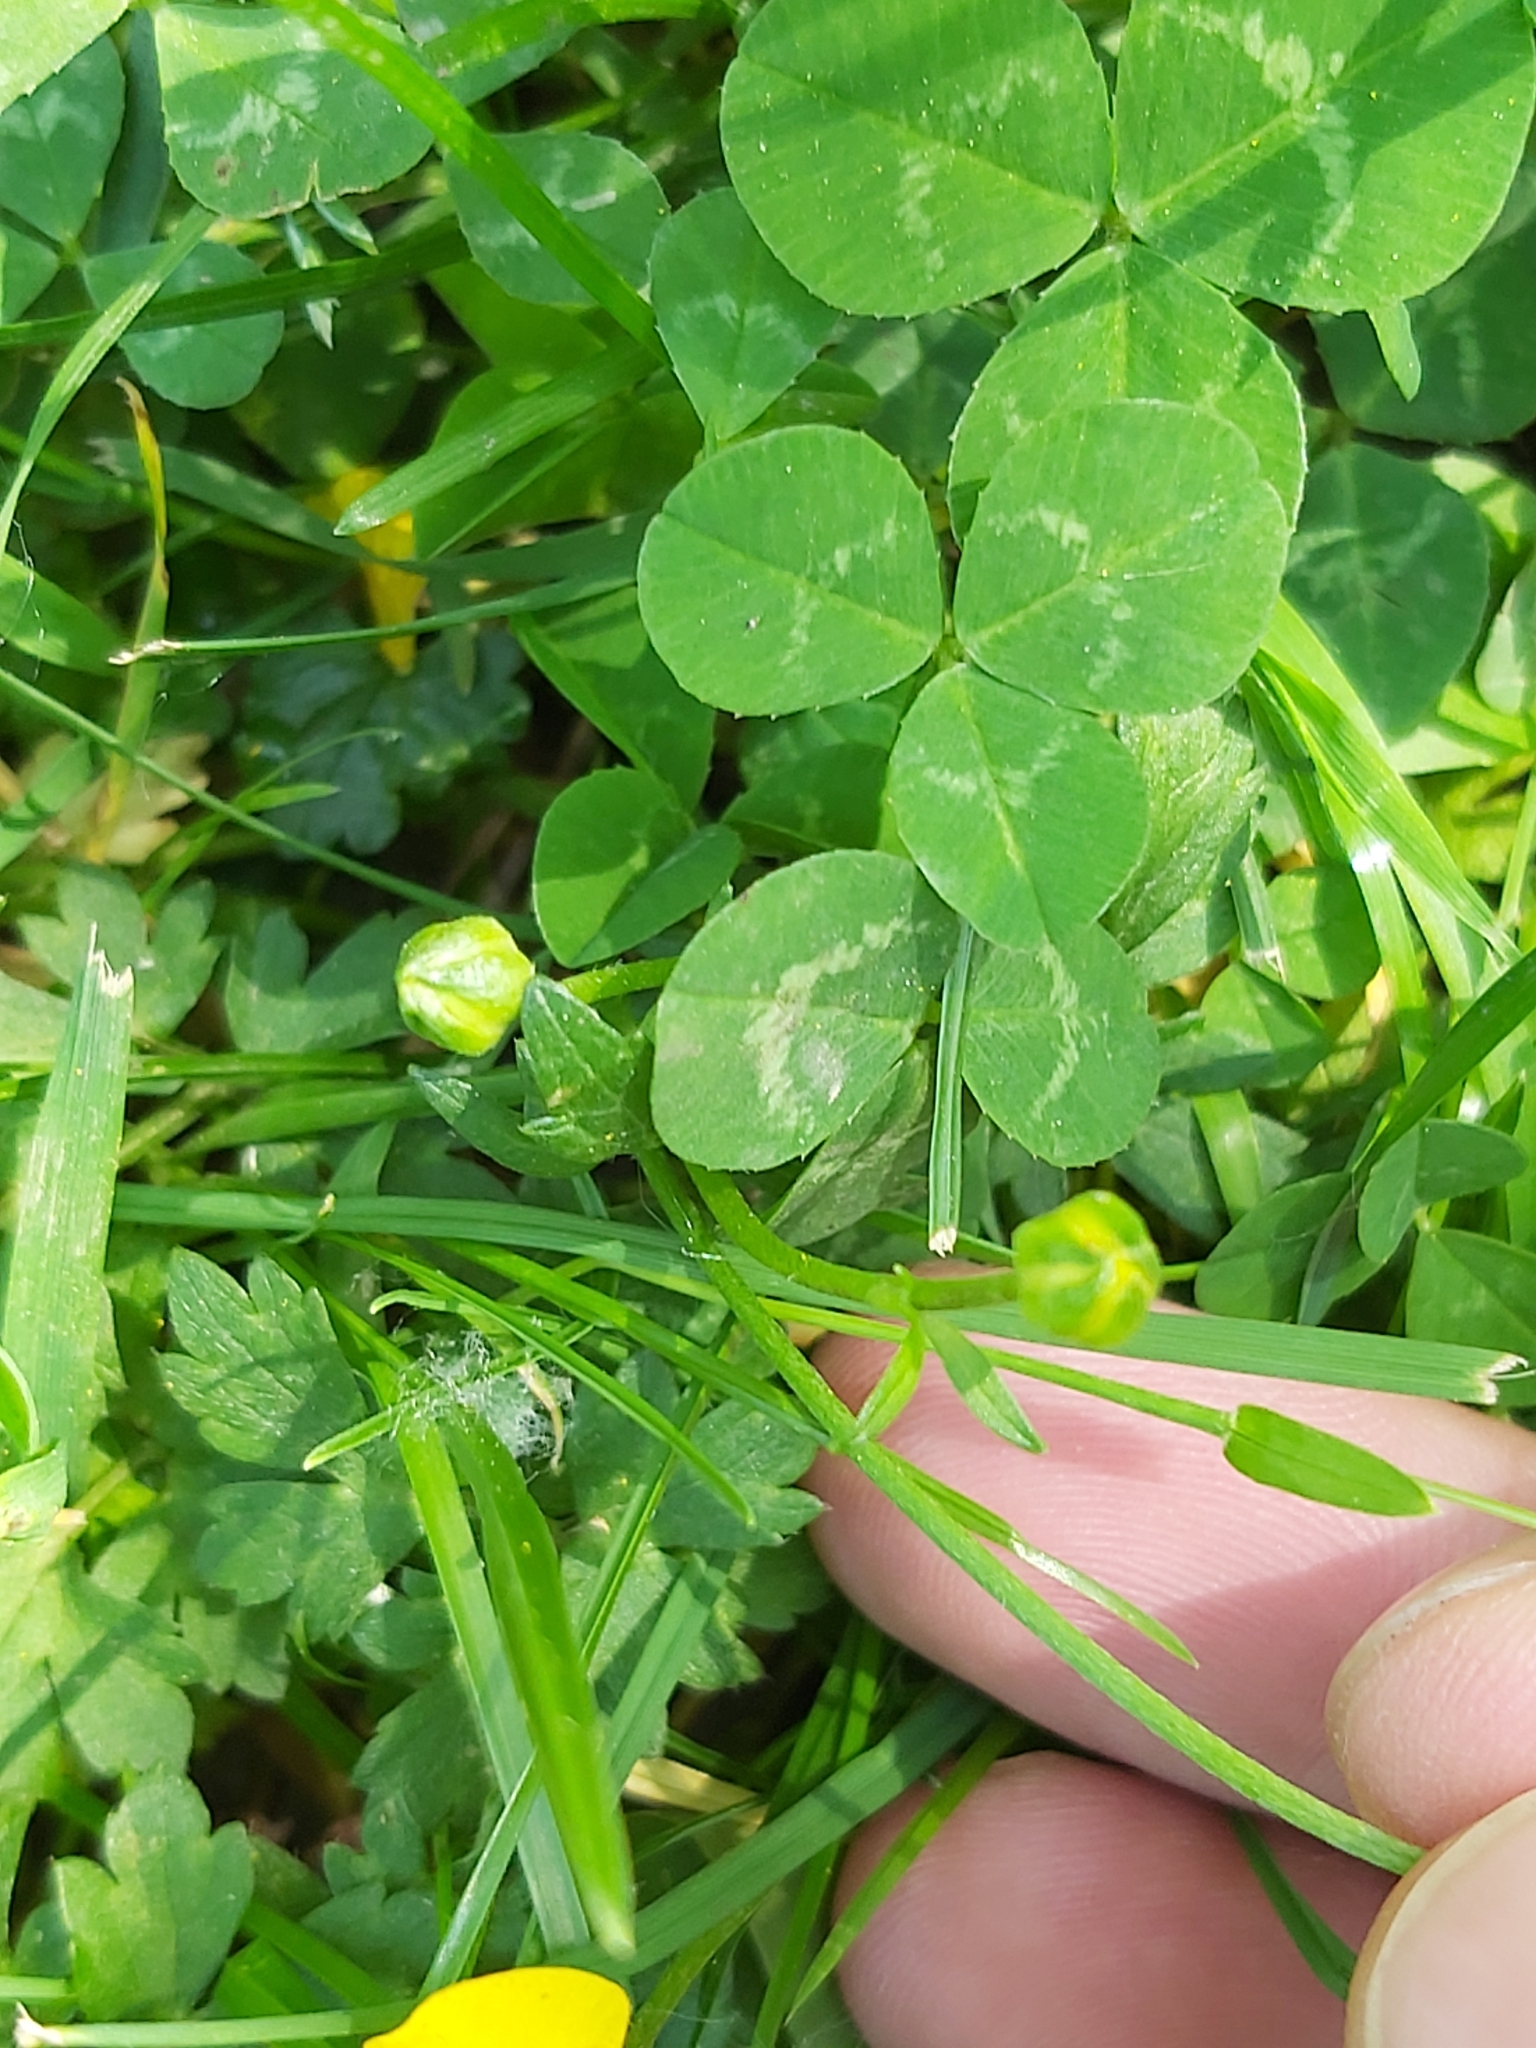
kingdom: Plantae
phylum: Tracheophyta
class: Magnoliopsida
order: Ranunculales
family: Ranunculaceae
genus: Ranunculus
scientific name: Ranunculus repens
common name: Creeping buttercup
